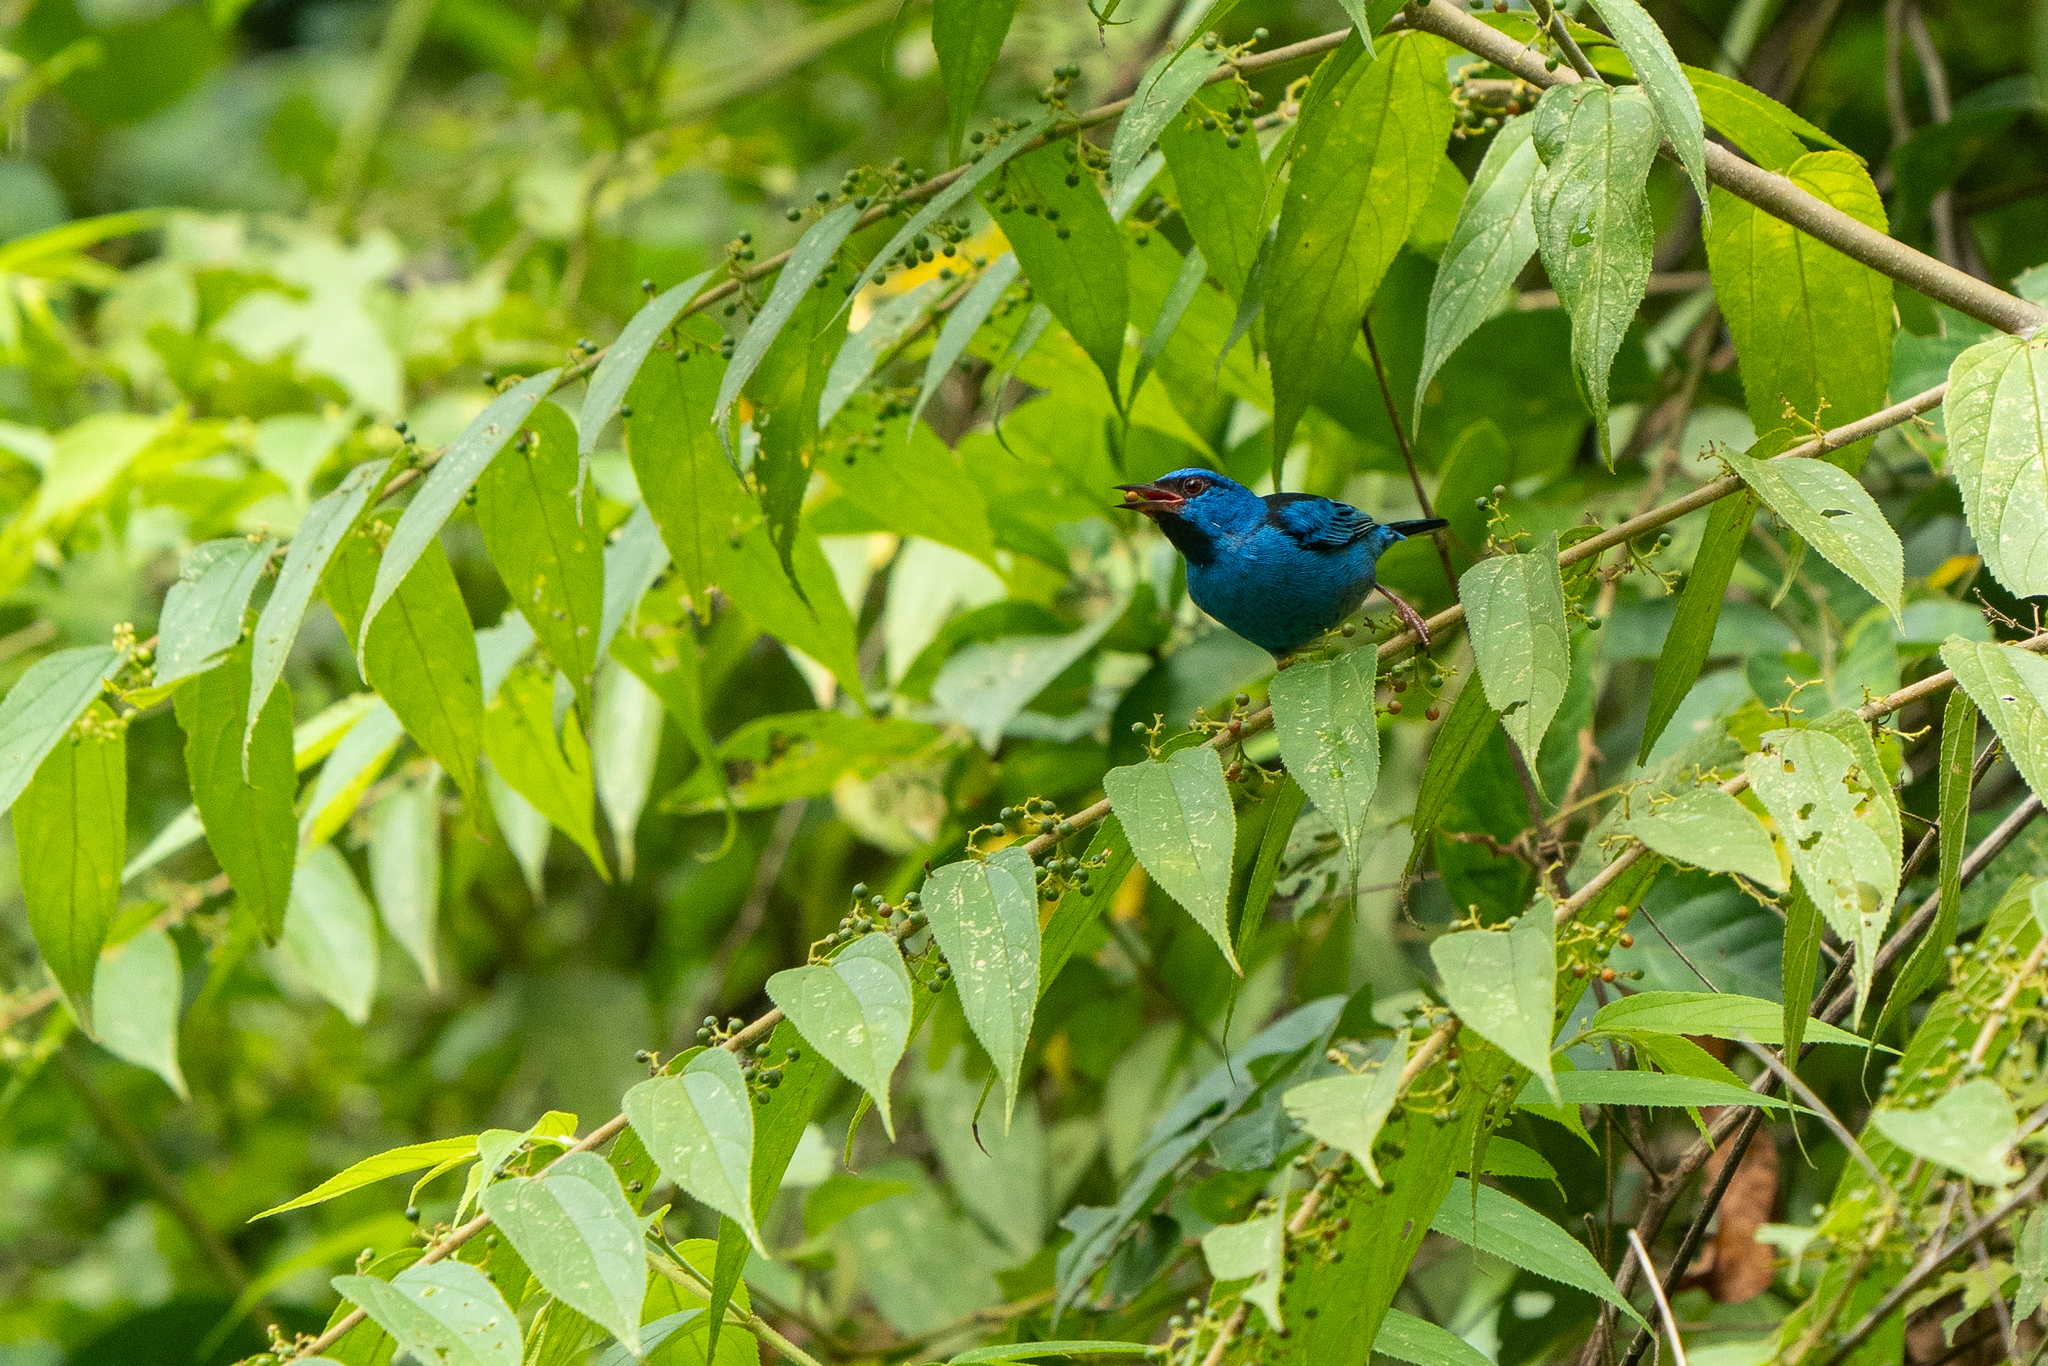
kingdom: Animalia
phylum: Chordata
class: Aves
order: Passeriformes
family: Thraupidae
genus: Dacnis
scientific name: Dacnis cayana
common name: Blue dacnis
